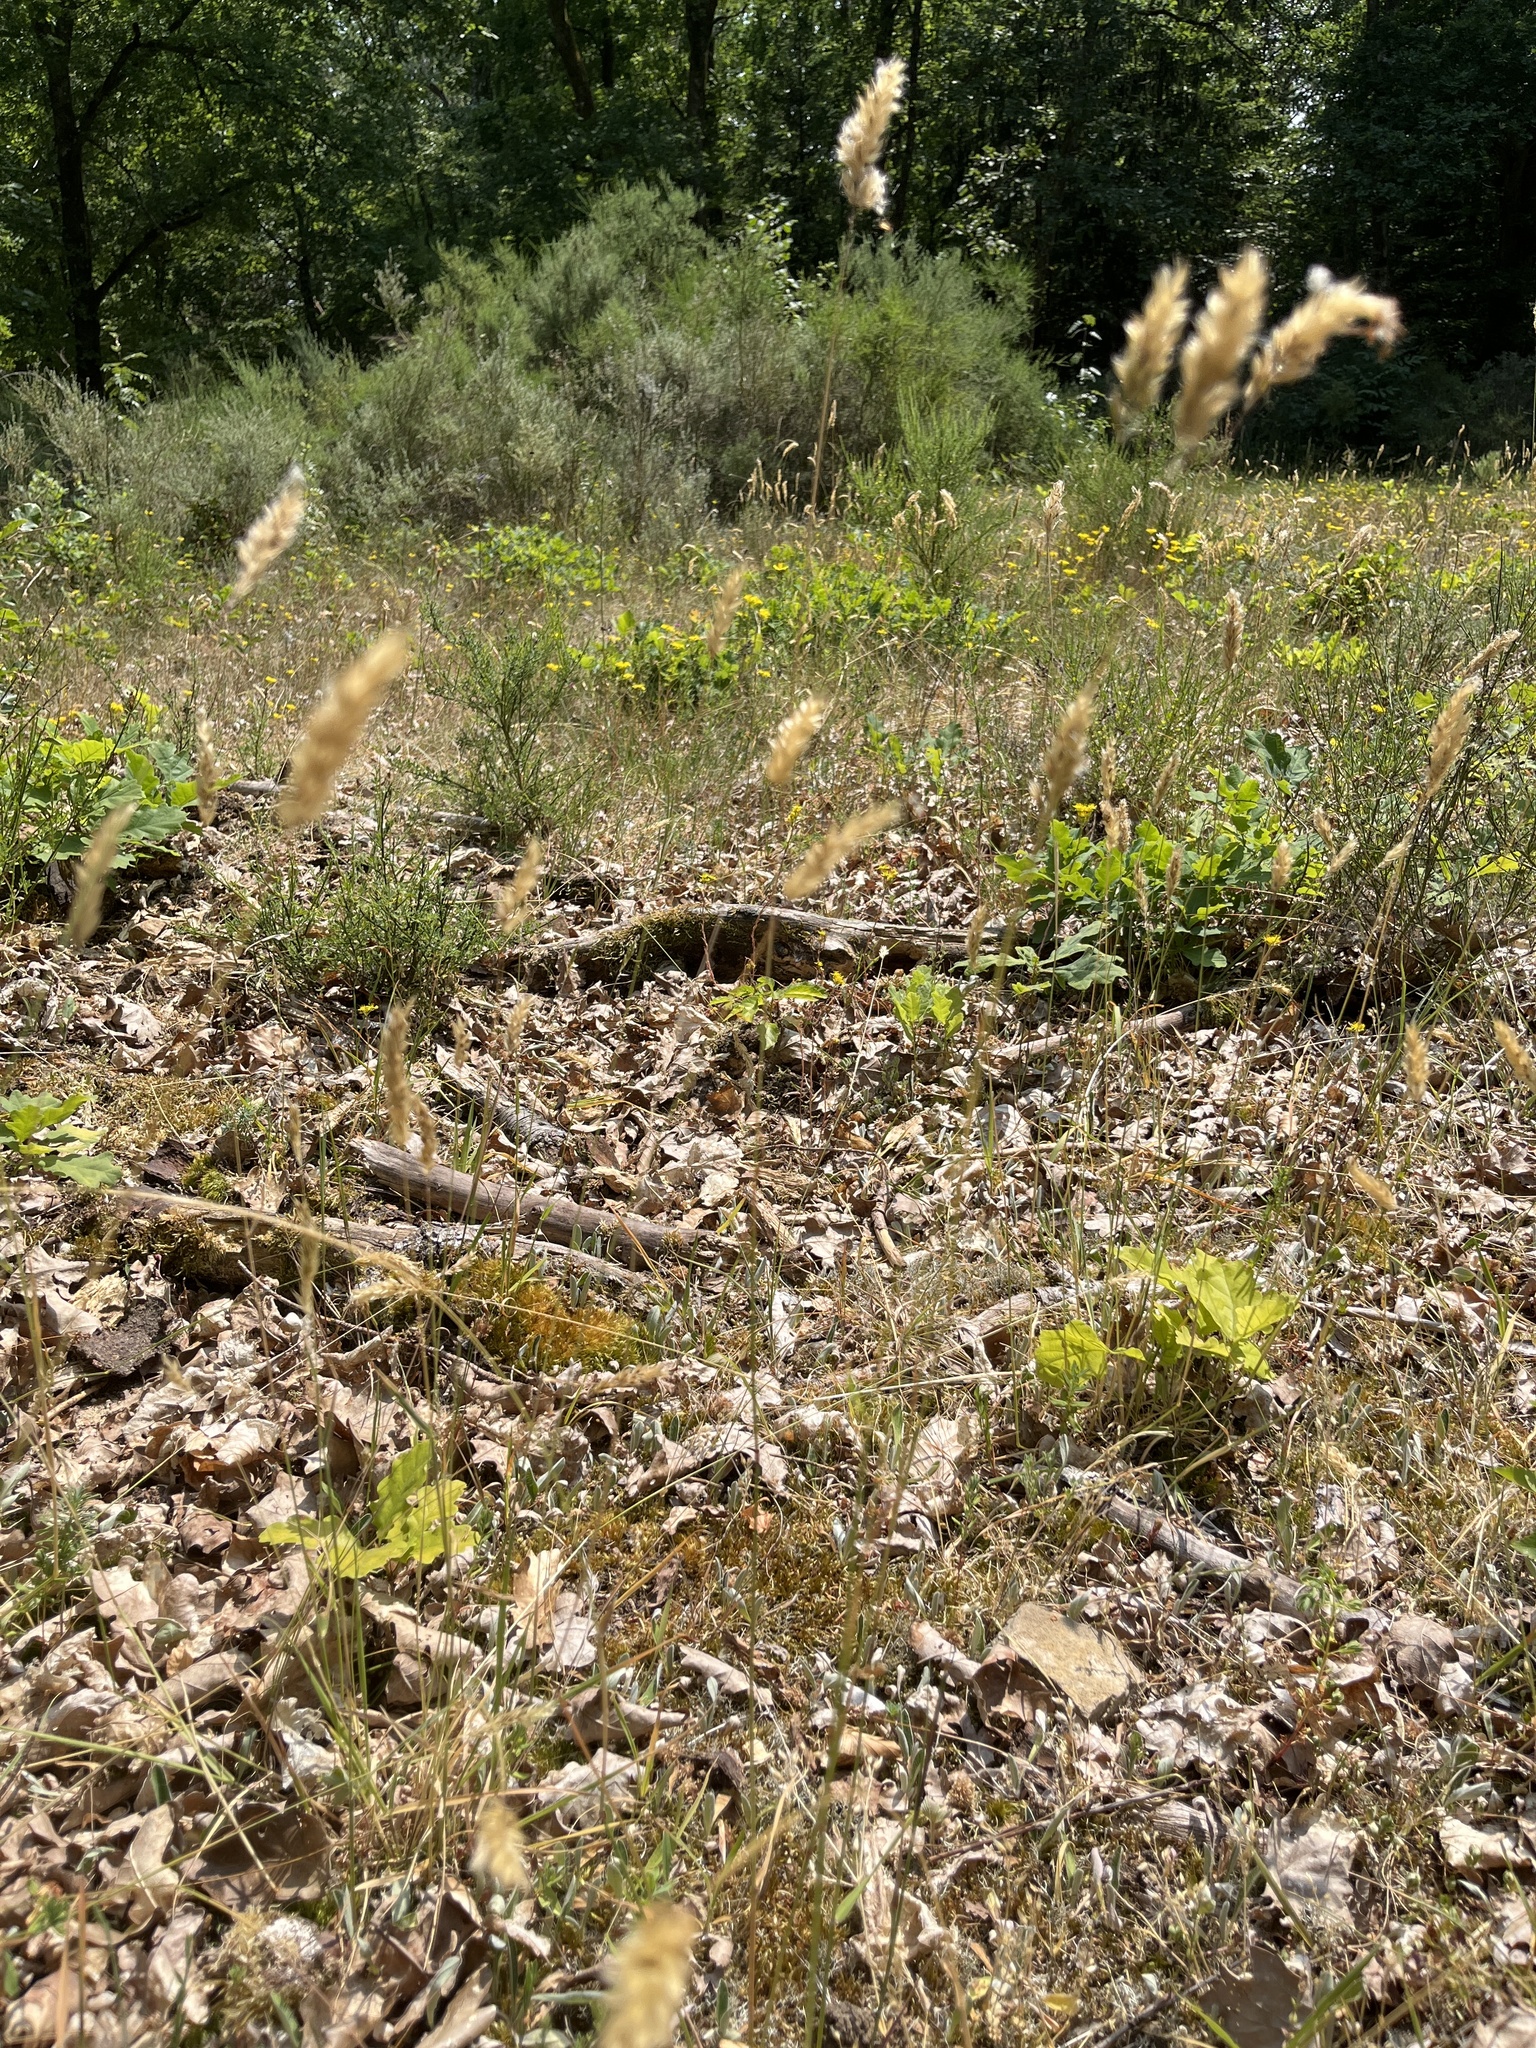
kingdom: Plantae
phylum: Tracheophyta
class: Liliopsida
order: Poales
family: Poaceae
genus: Anthoxanthum
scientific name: Anthoxanthum odoratum
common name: Sweet vernalgrass
